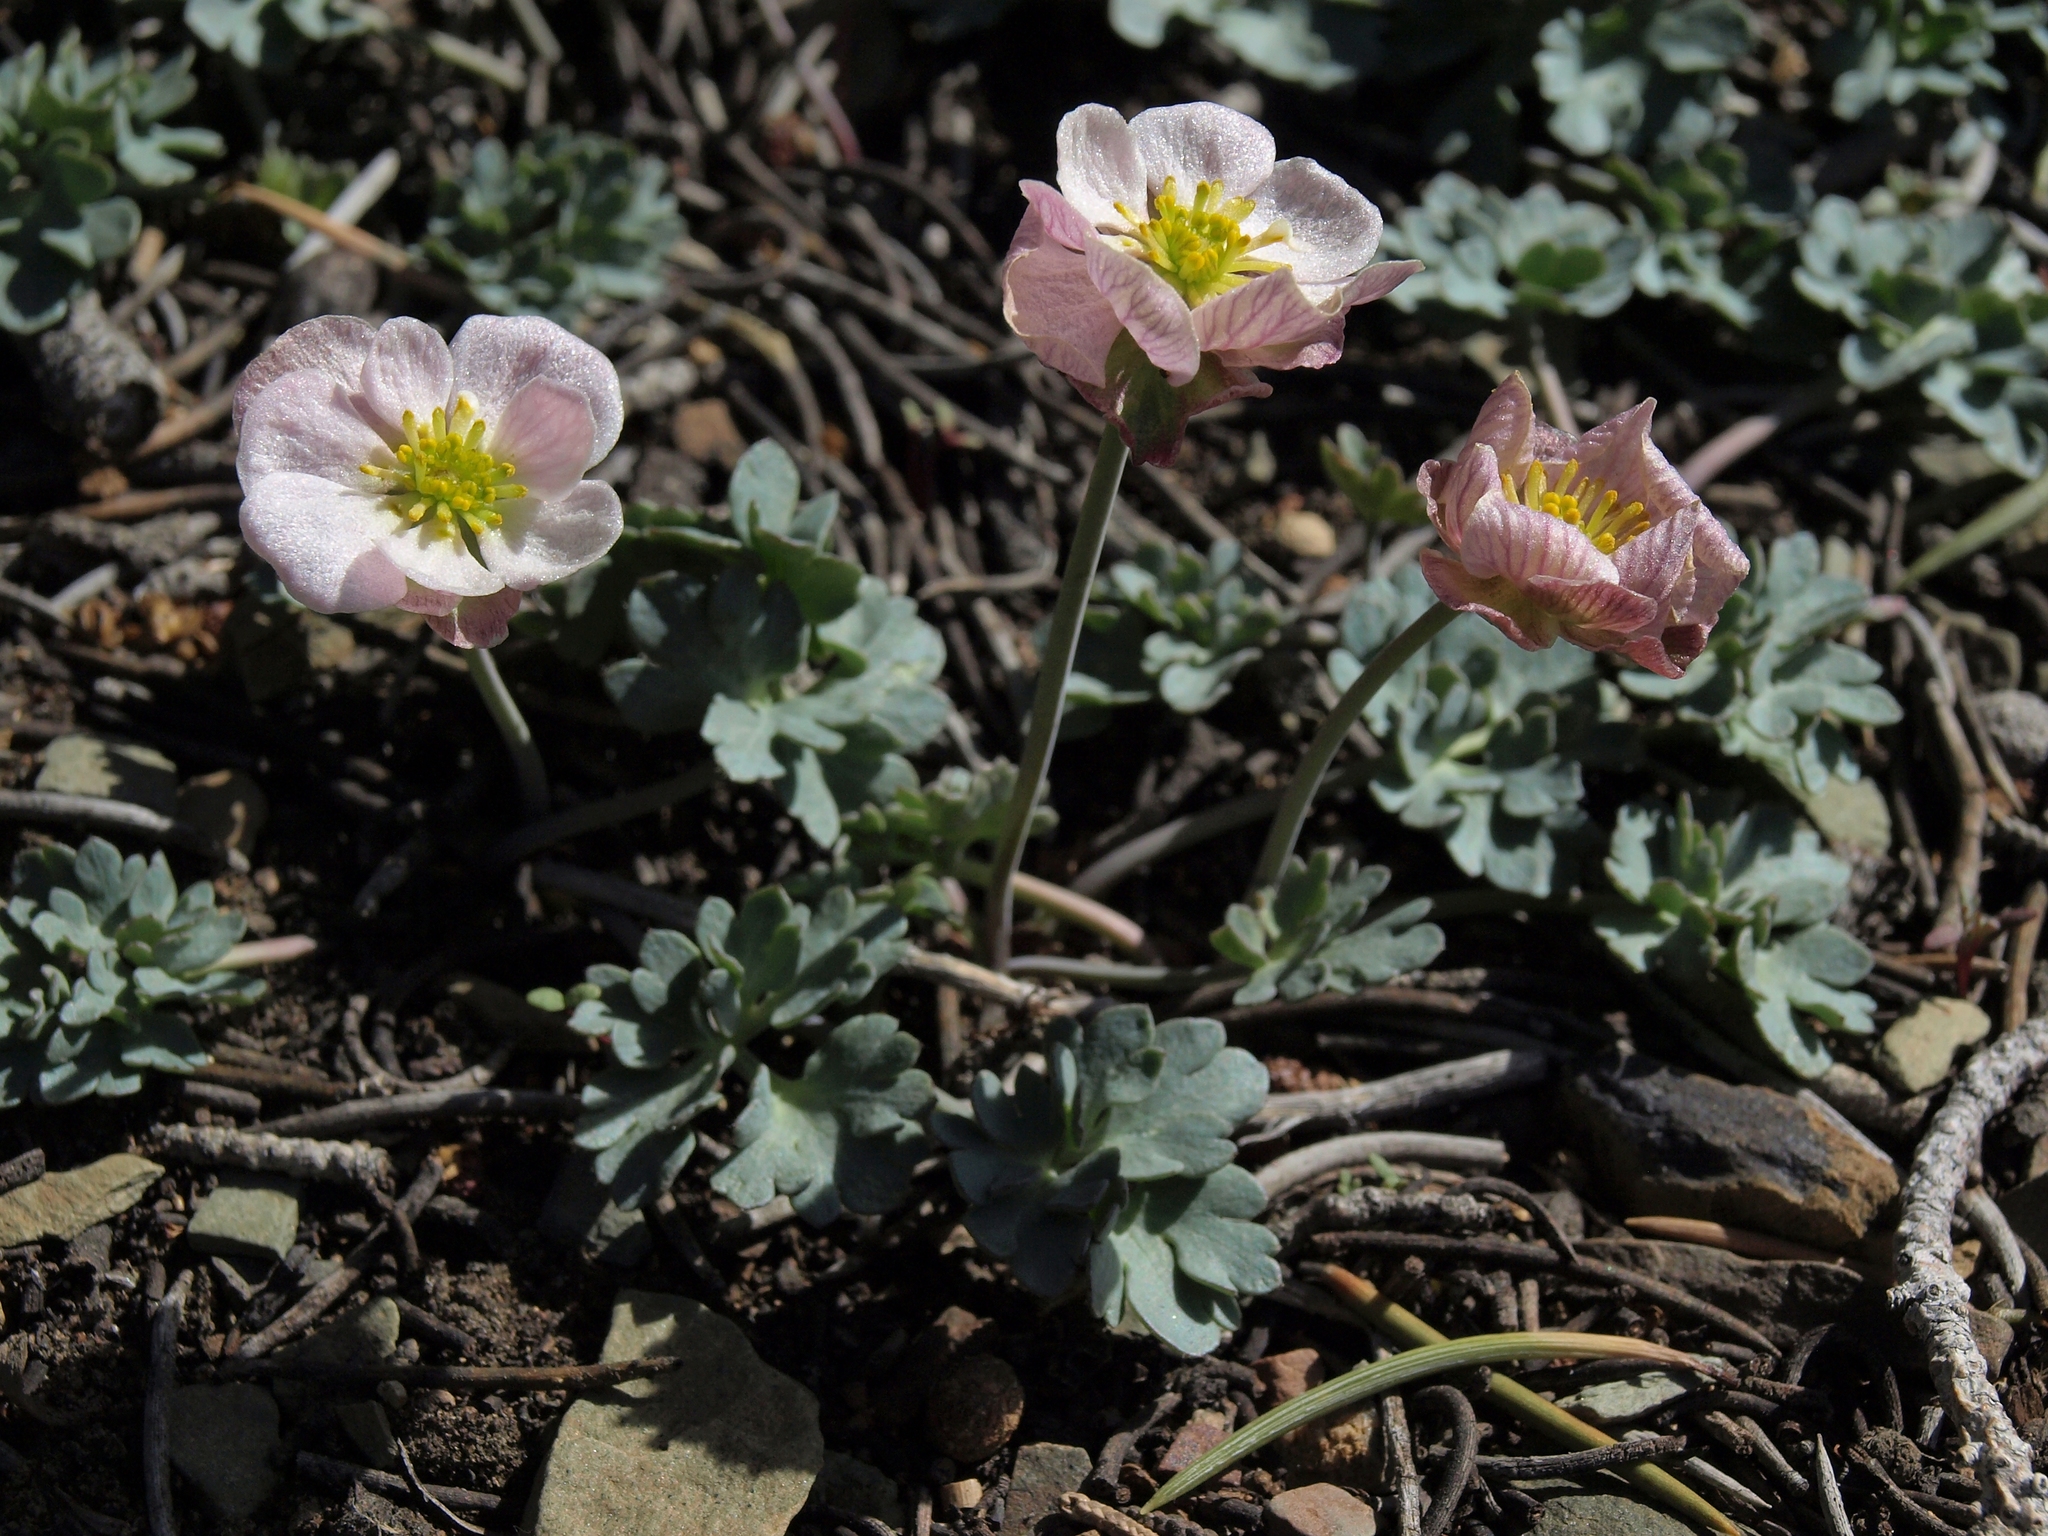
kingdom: Plantae
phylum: Tracheophyta
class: Magnoliopsida
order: Ranunculales
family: Ranunculaceae
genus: Beckwithia
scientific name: Beckwithia andersonii
